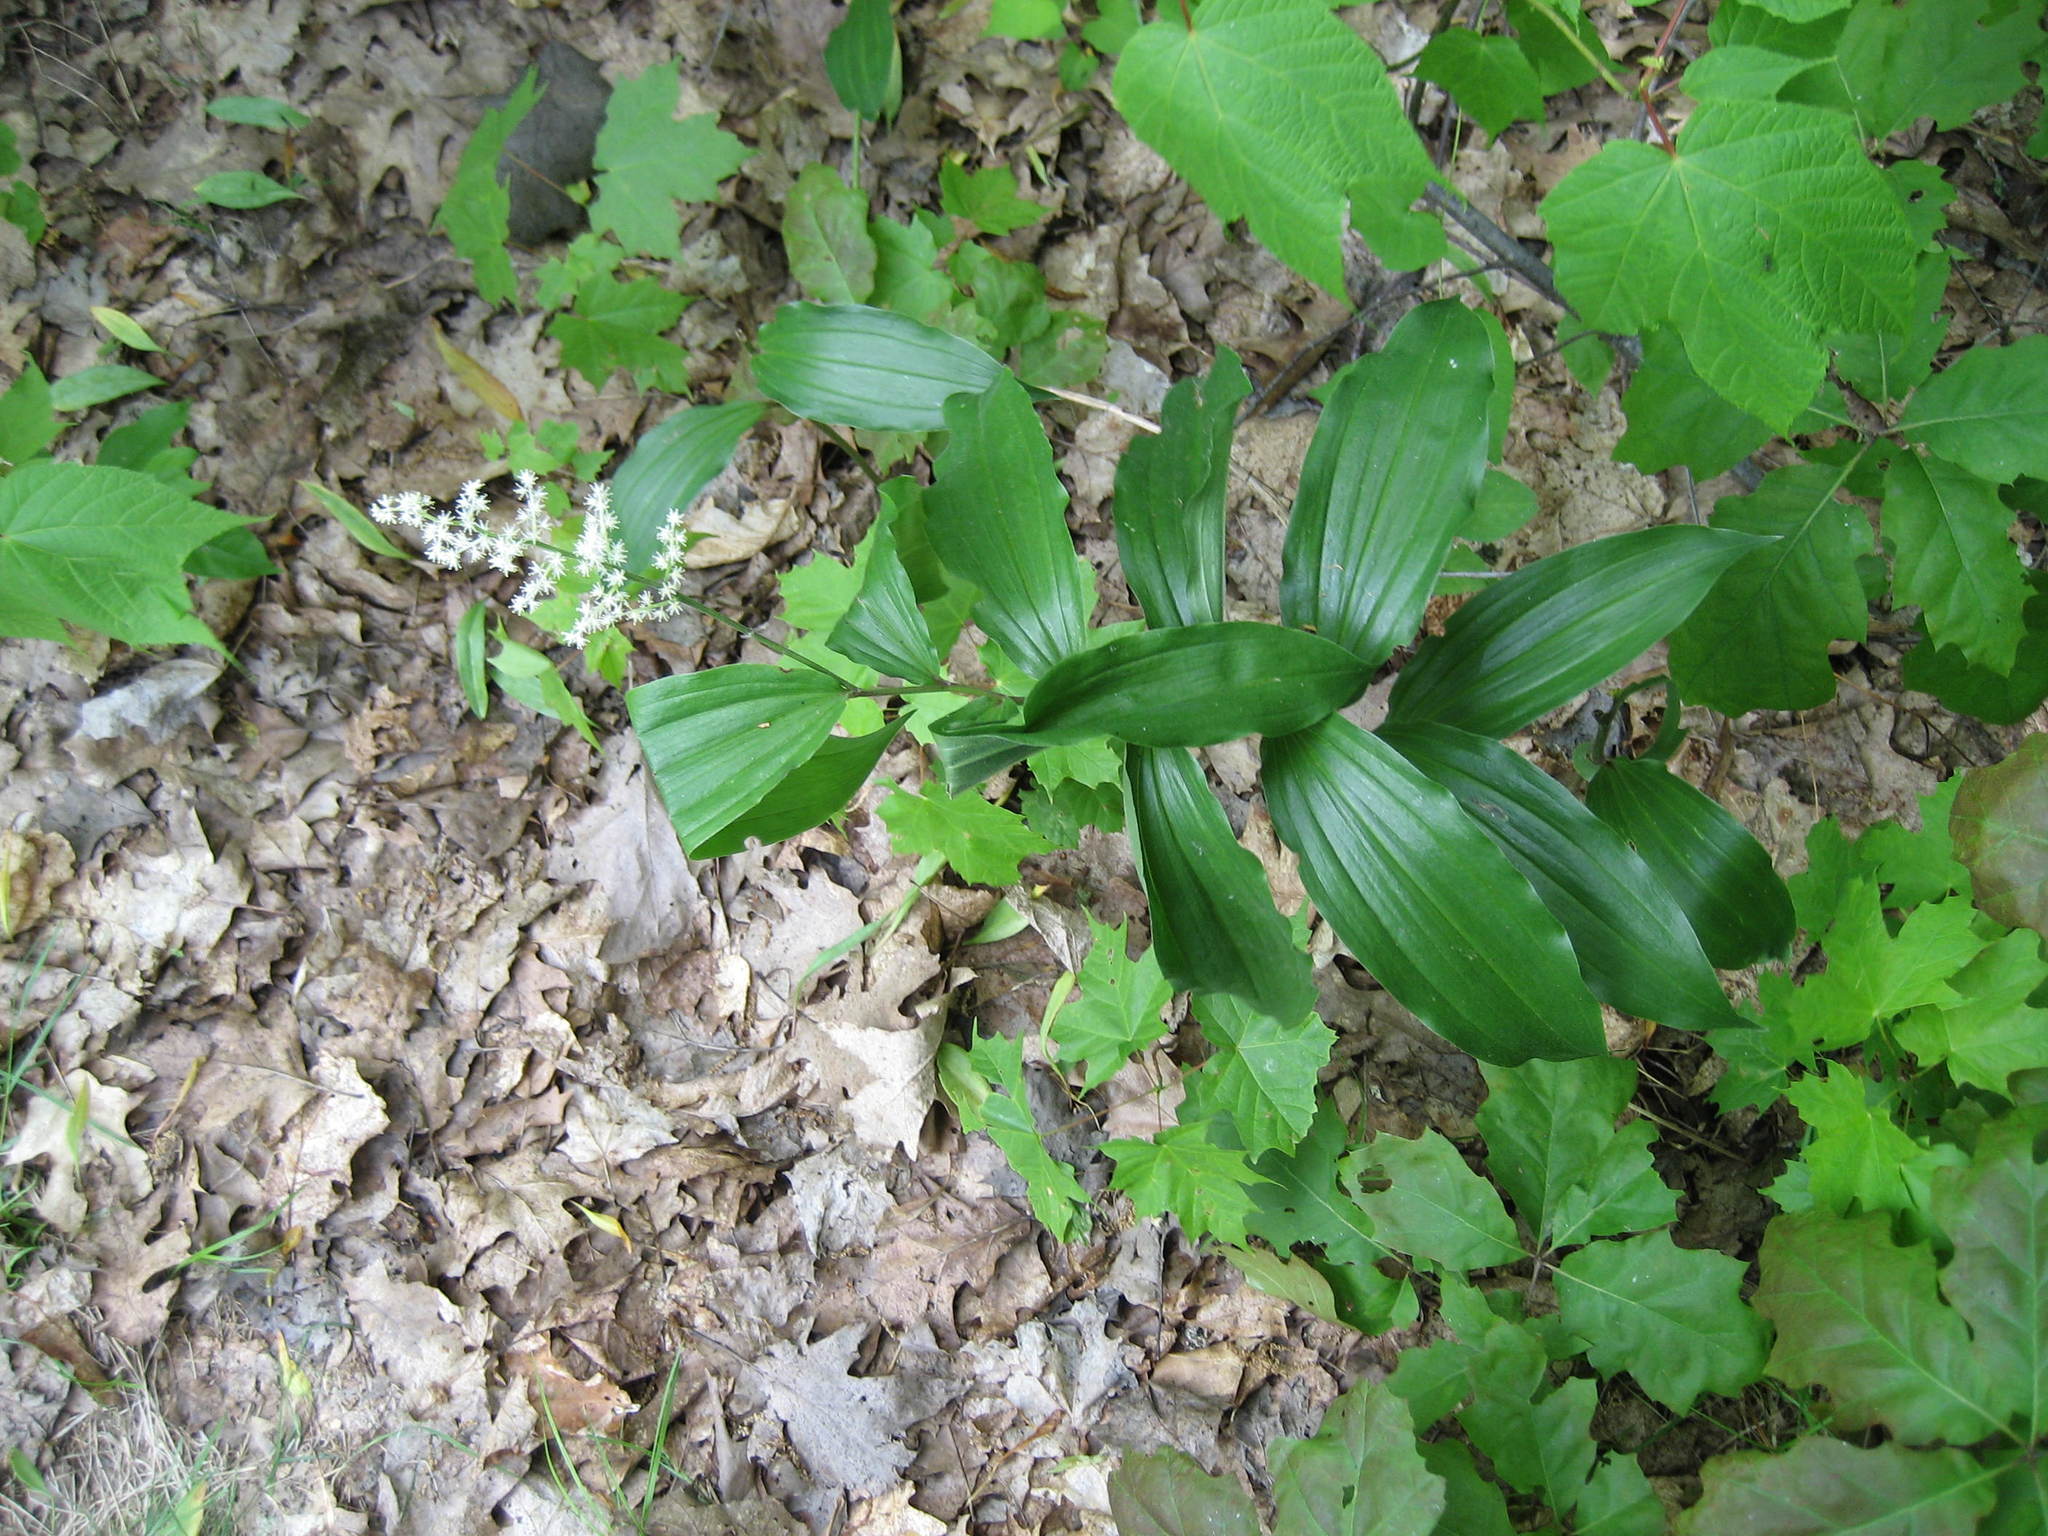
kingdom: Plantae
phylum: Tracheophyta
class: Liliopsida
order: Asparagales
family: Asparagaceae
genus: Maianthemum
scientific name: Maianthemum racemosum
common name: False spikenard
